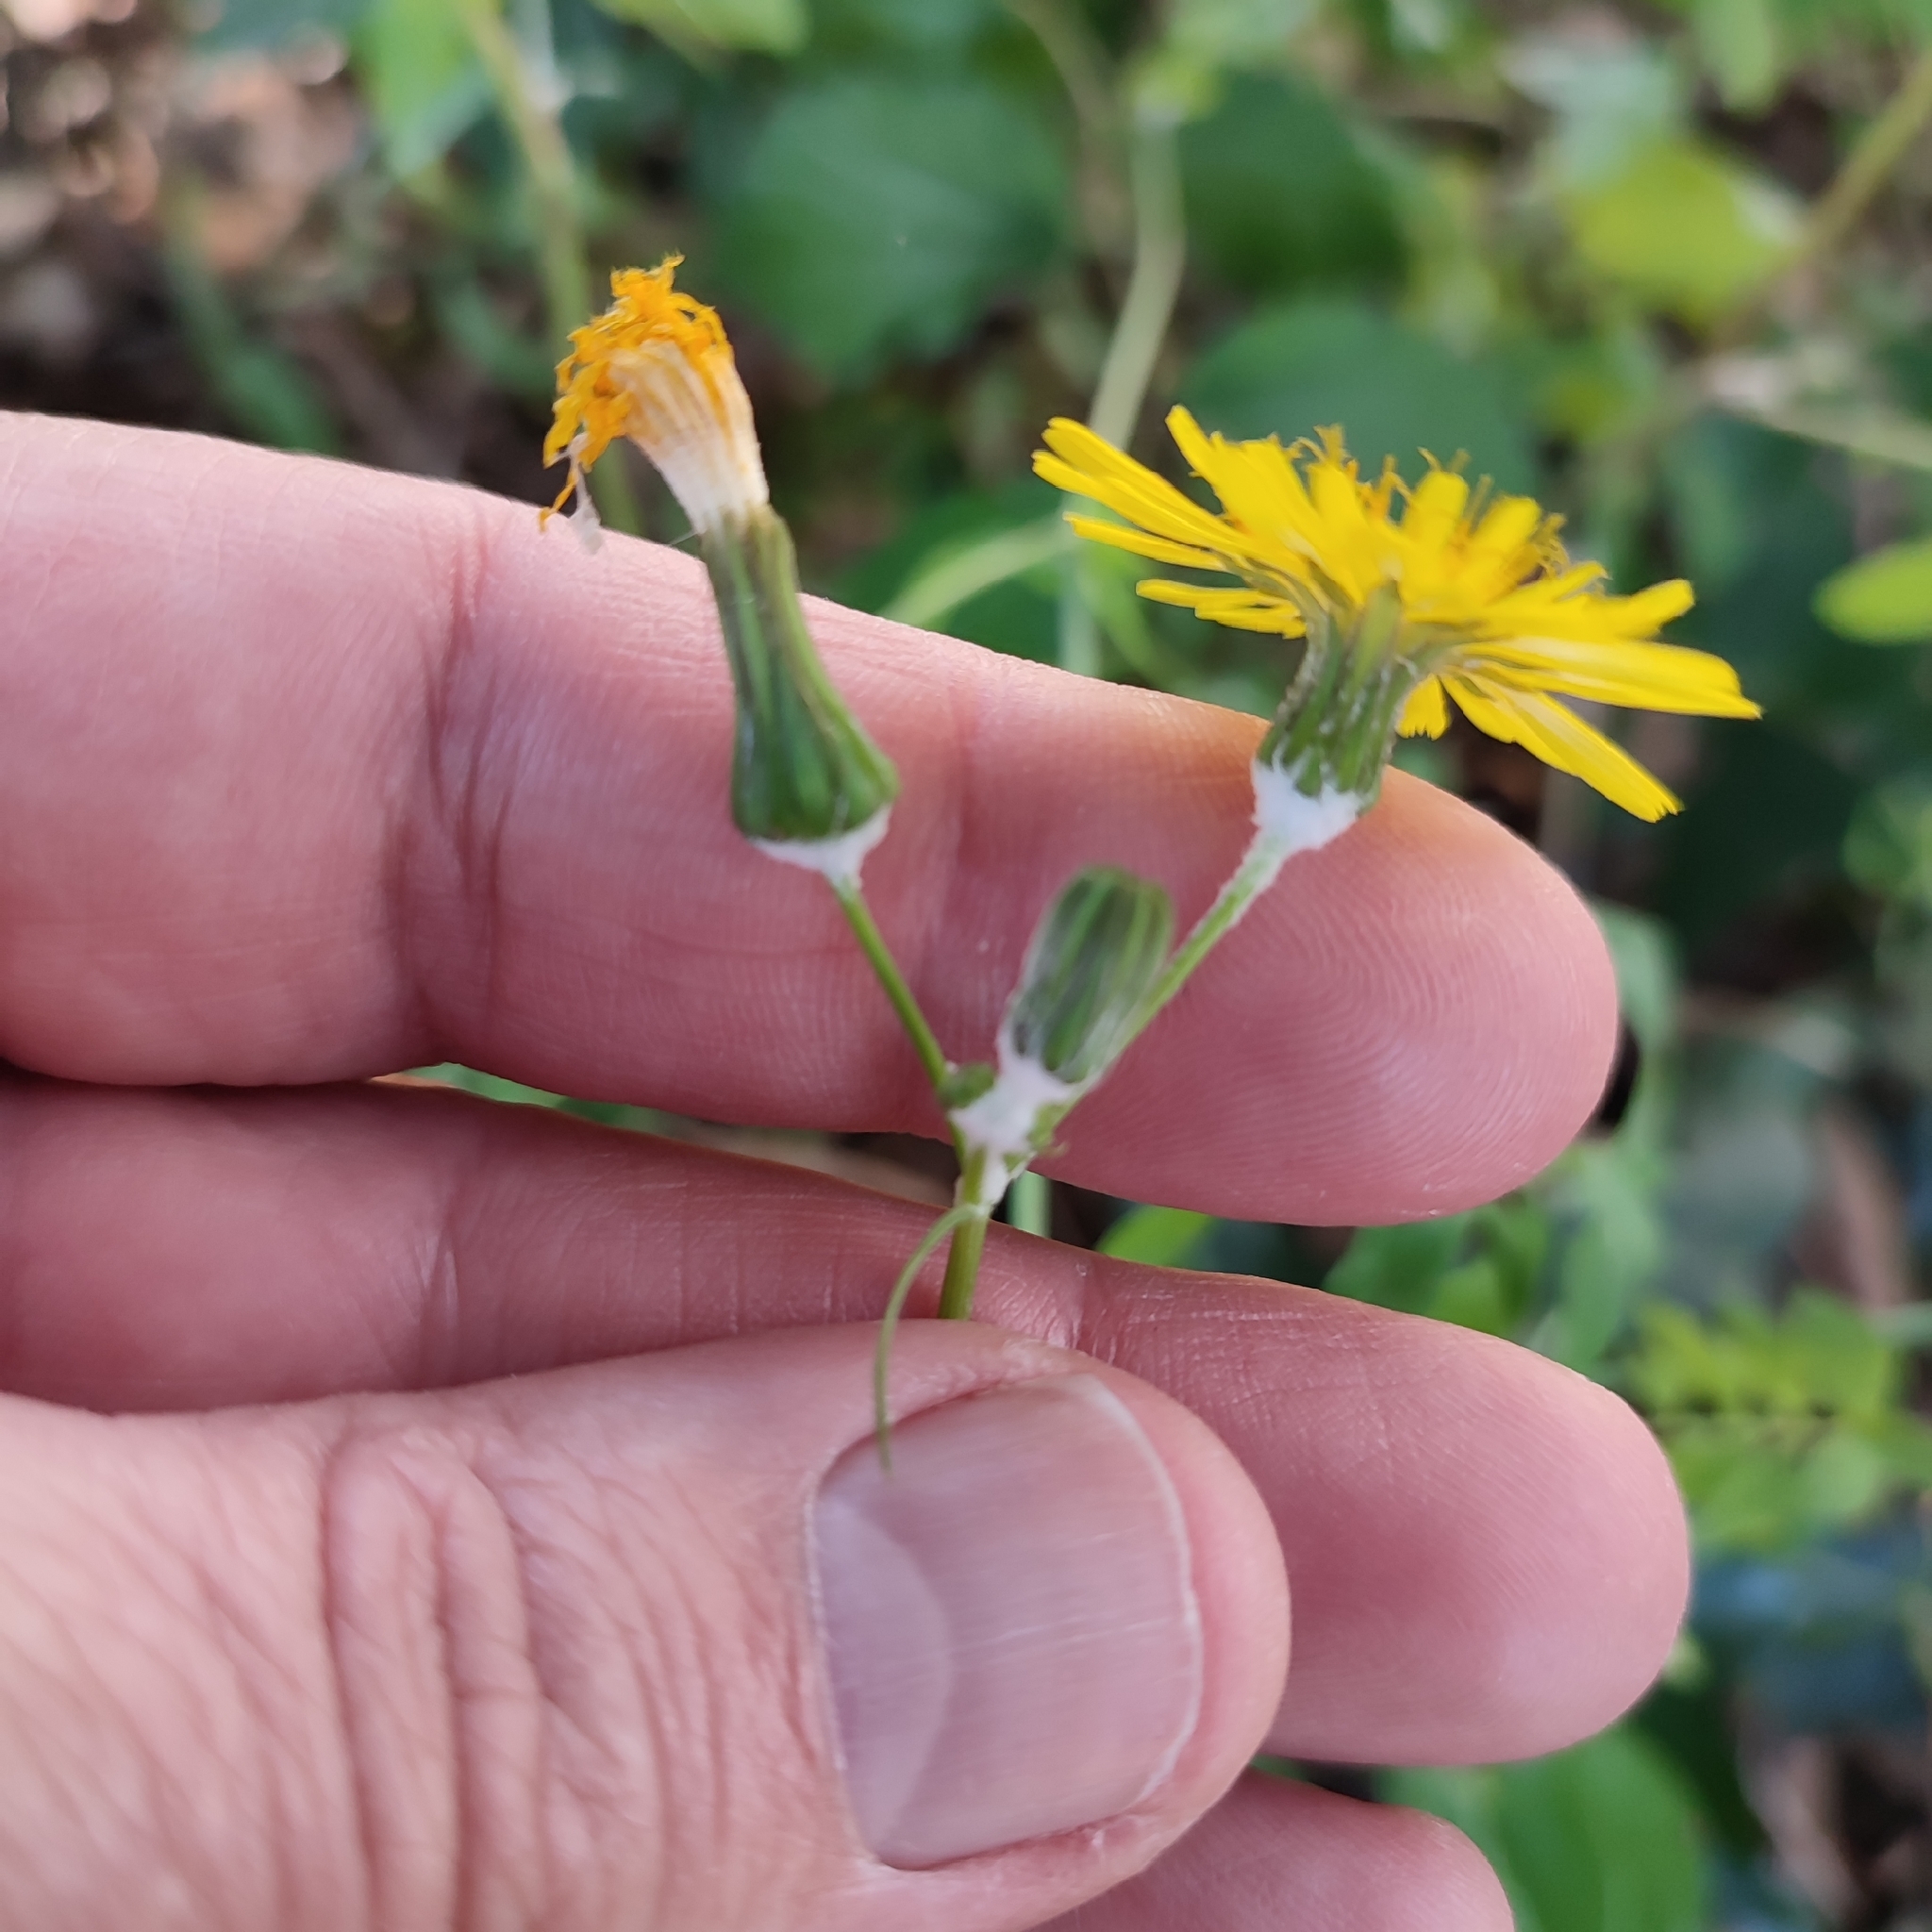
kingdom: Plantae
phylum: Tracheophyta
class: Magnoliopsida
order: Asterales
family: Asteraceae
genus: Sonchus
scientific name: Sonchus tenerrimus
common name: Clammy sowthistle
